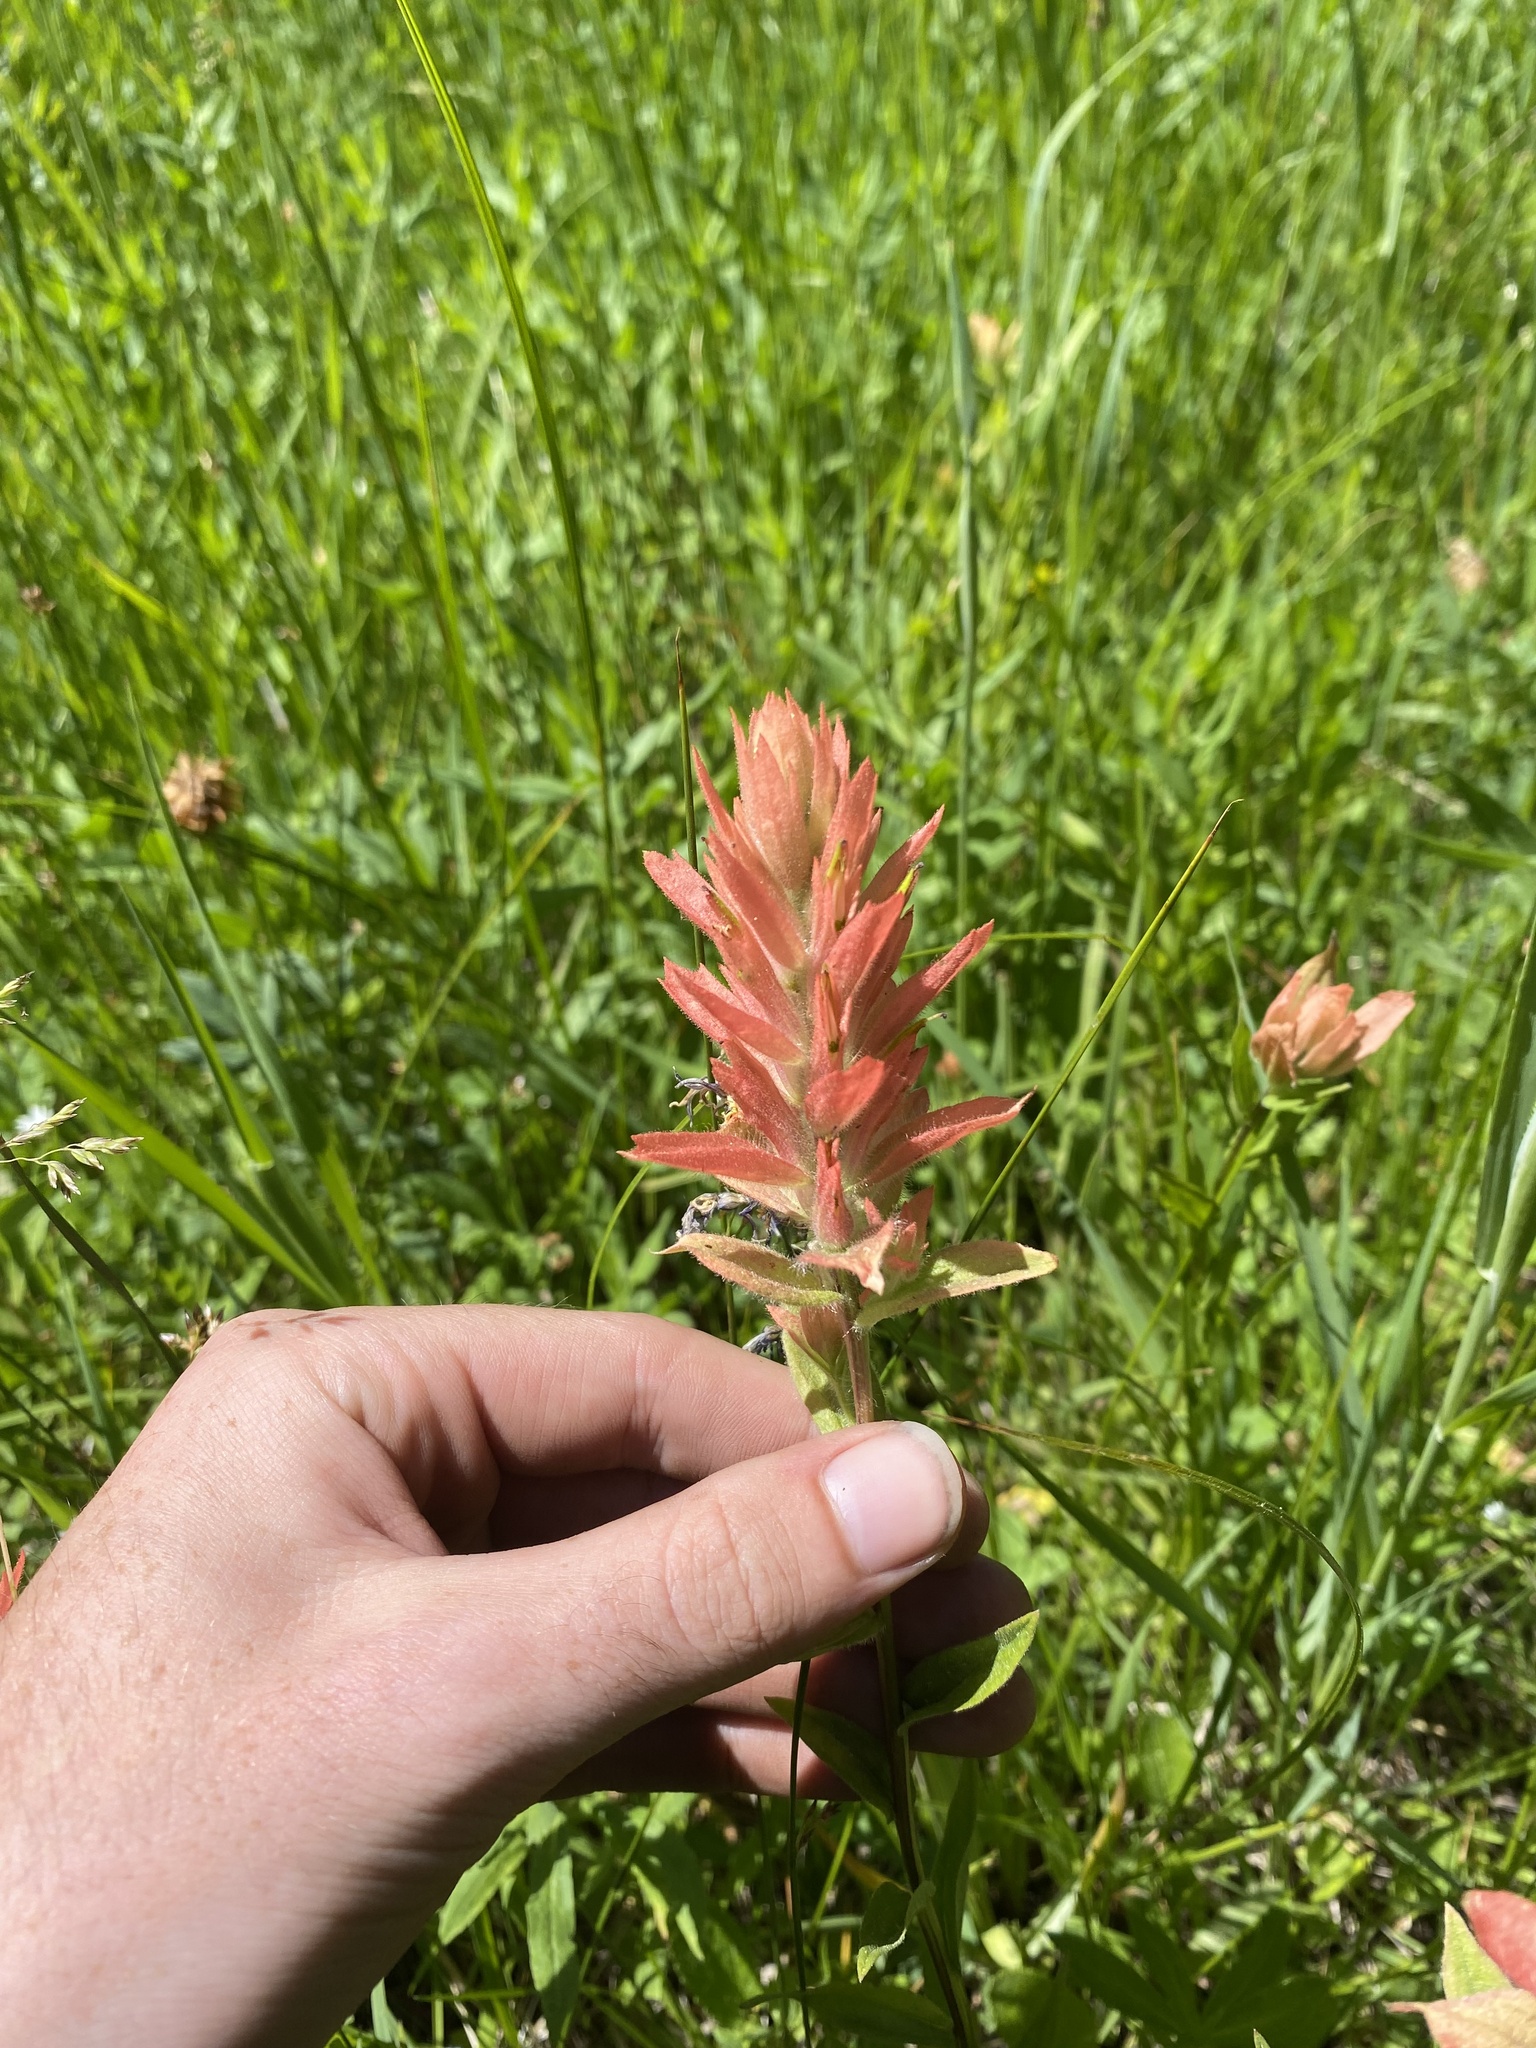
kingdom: Plantae
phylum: Tracheophyta
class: Magnoliopsida
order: Lamiales
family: Orobanchaceae
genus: Castilleja
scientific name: Castilleja gracillima
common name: Slender paintbrush
